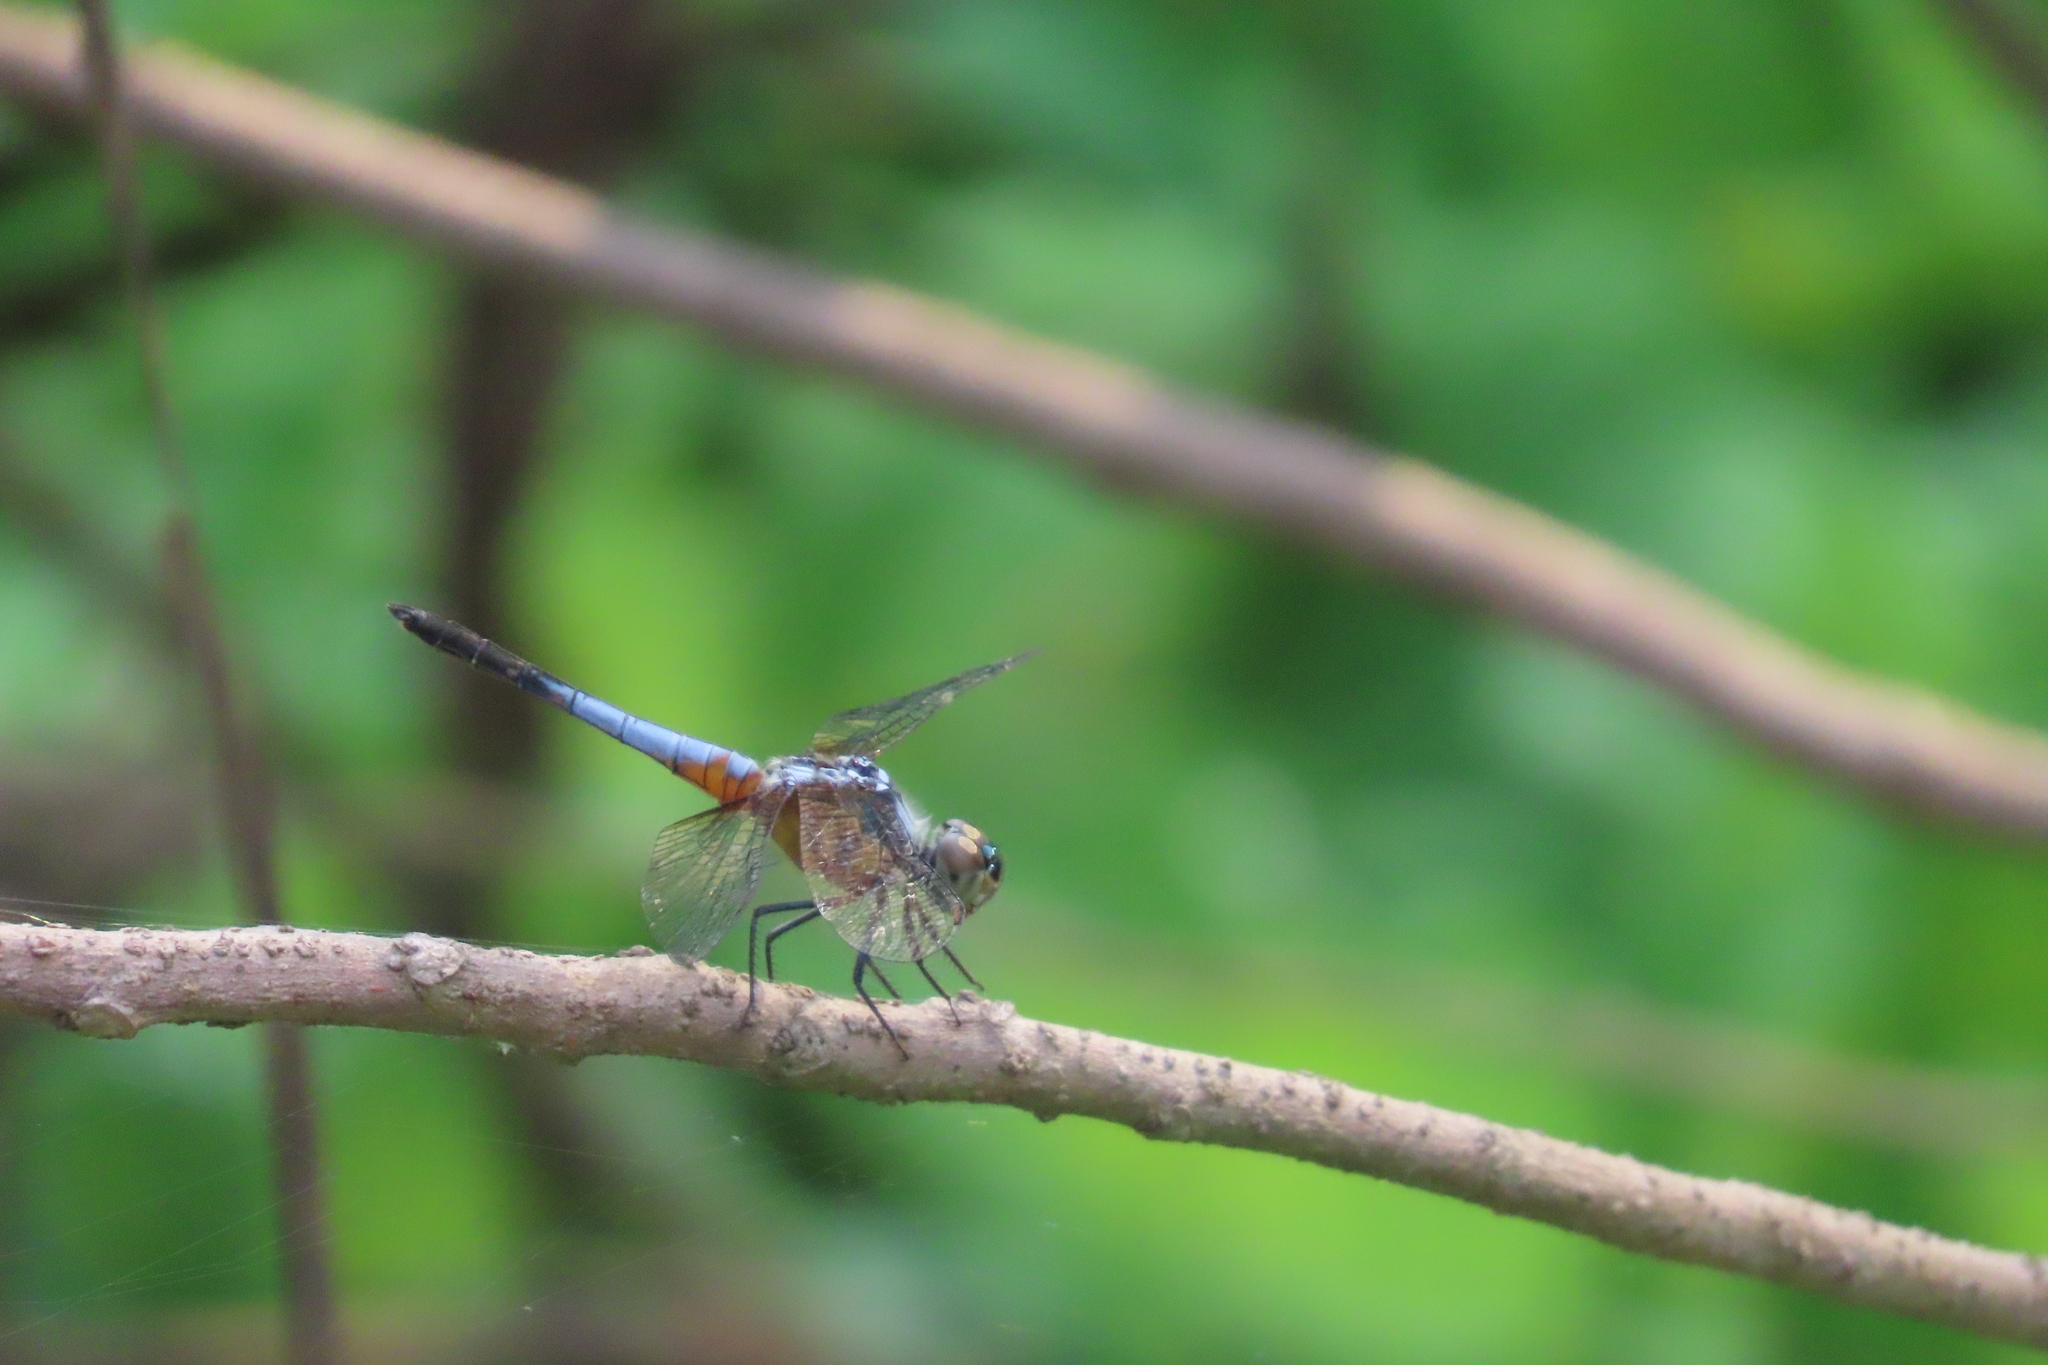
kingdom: Animalia
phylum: Arthropoda
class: Insecta
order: Odonata
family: Libellulidae
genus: Brachydiplax
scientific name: Brachydiplax chalybea
